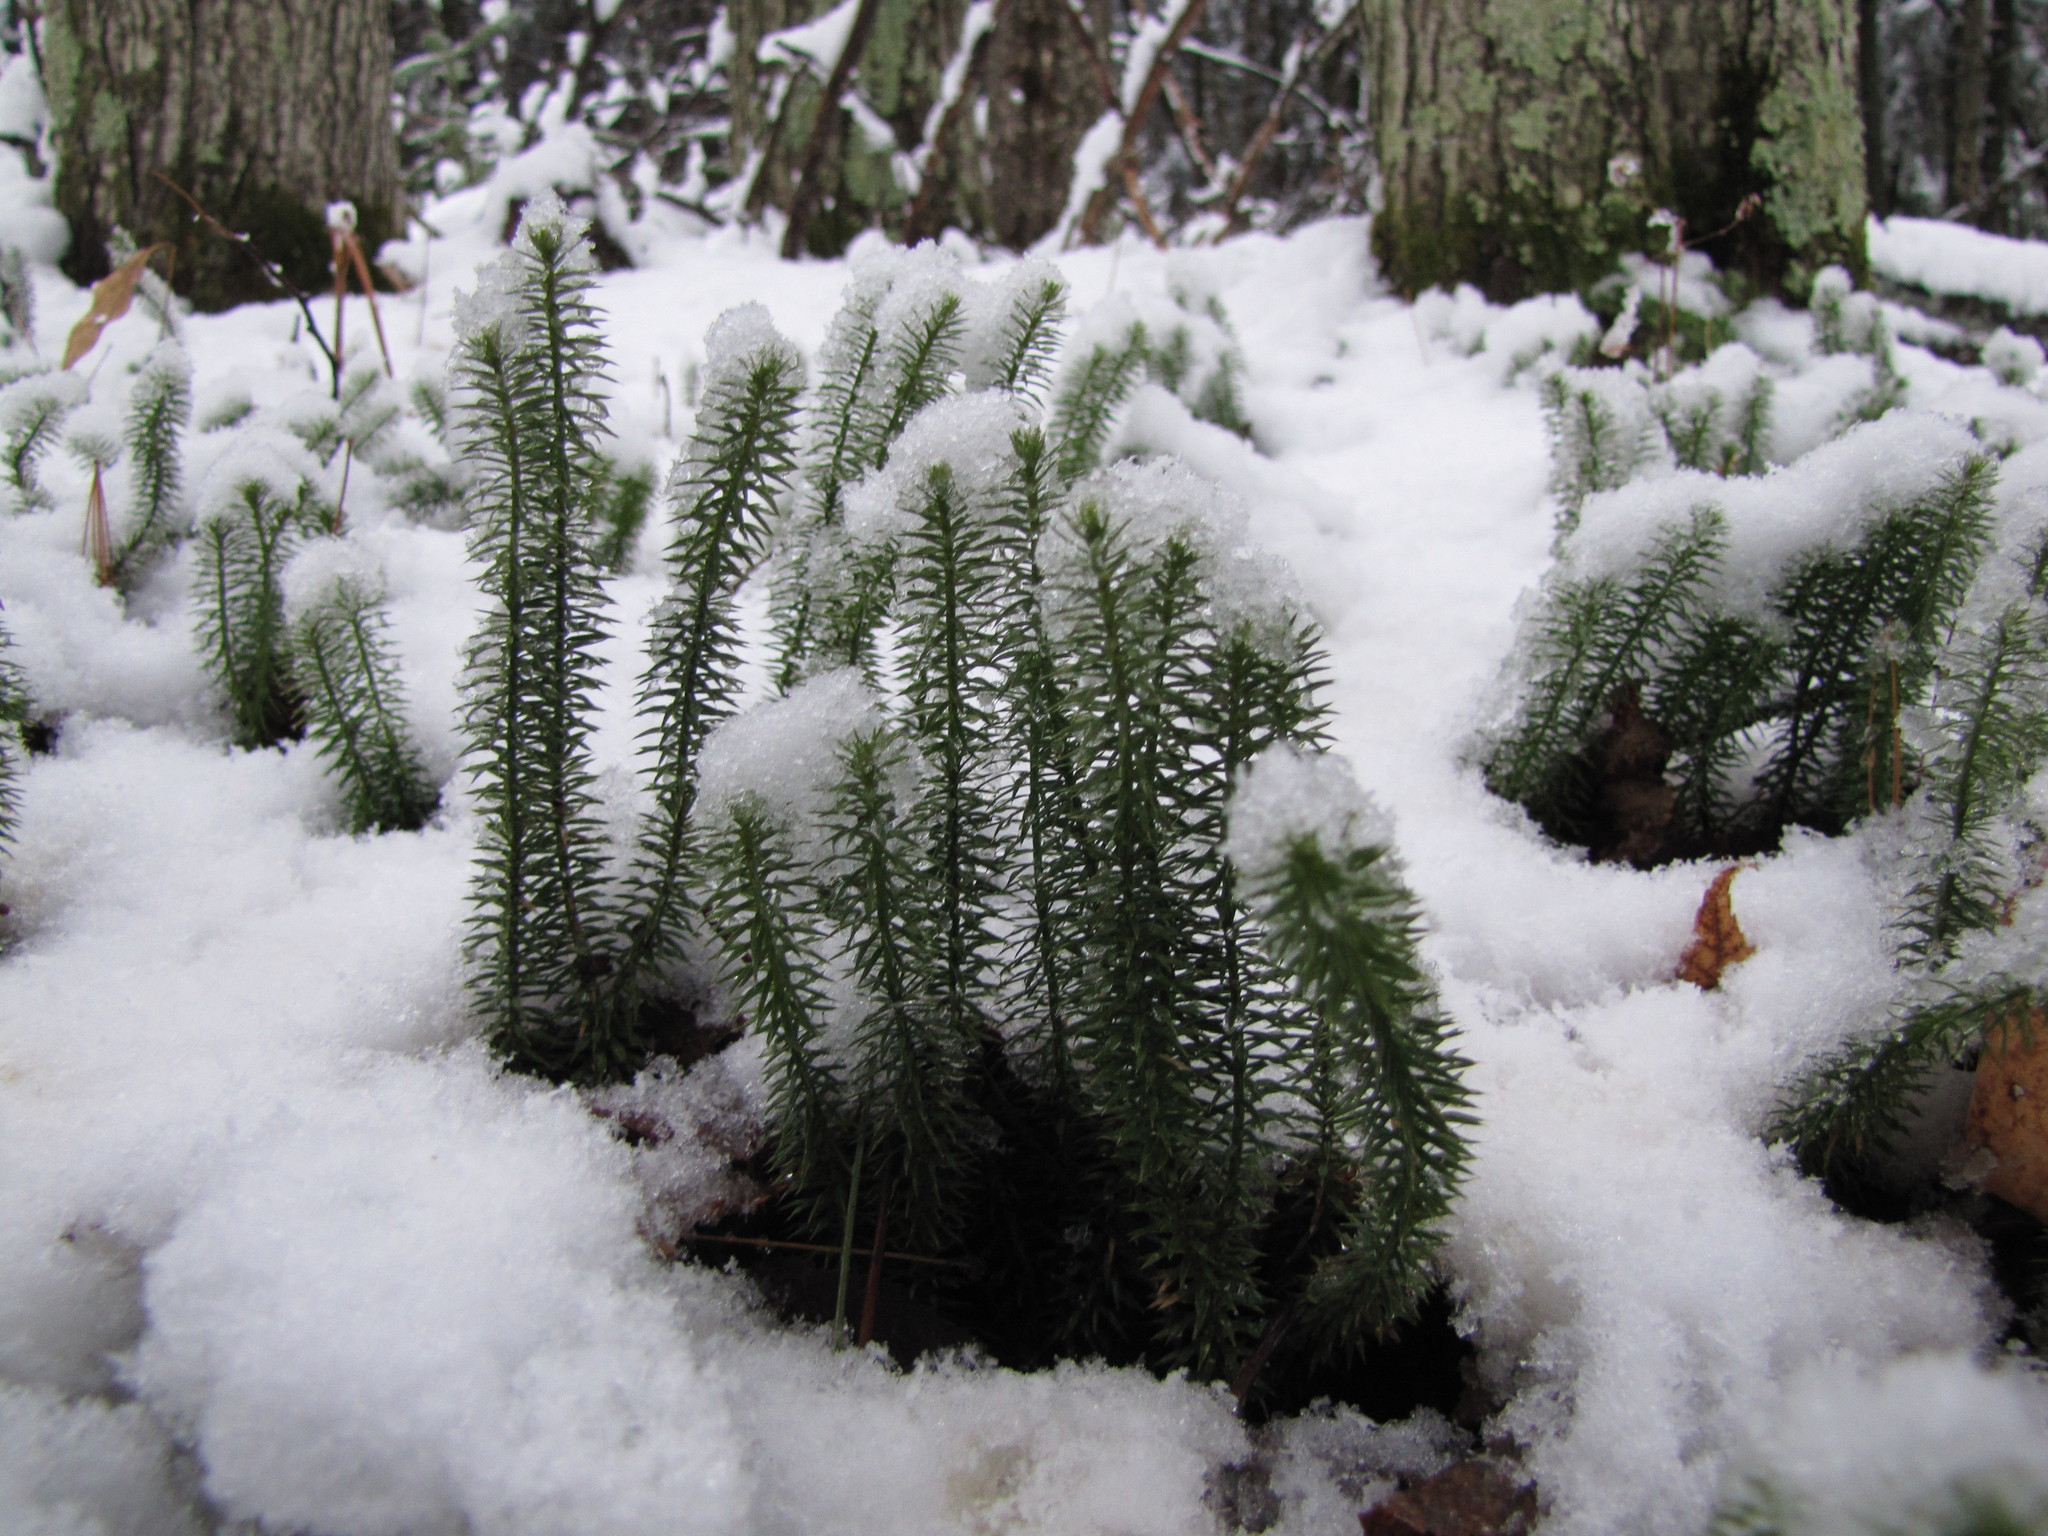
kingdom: Plantae
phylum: Tracheophyta
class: Lycopodiopsida
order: Lycopodiales
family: Lycopodiaceae
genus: Spinulum
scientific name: Spinulum annotinum
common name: Interrupted club-moss
